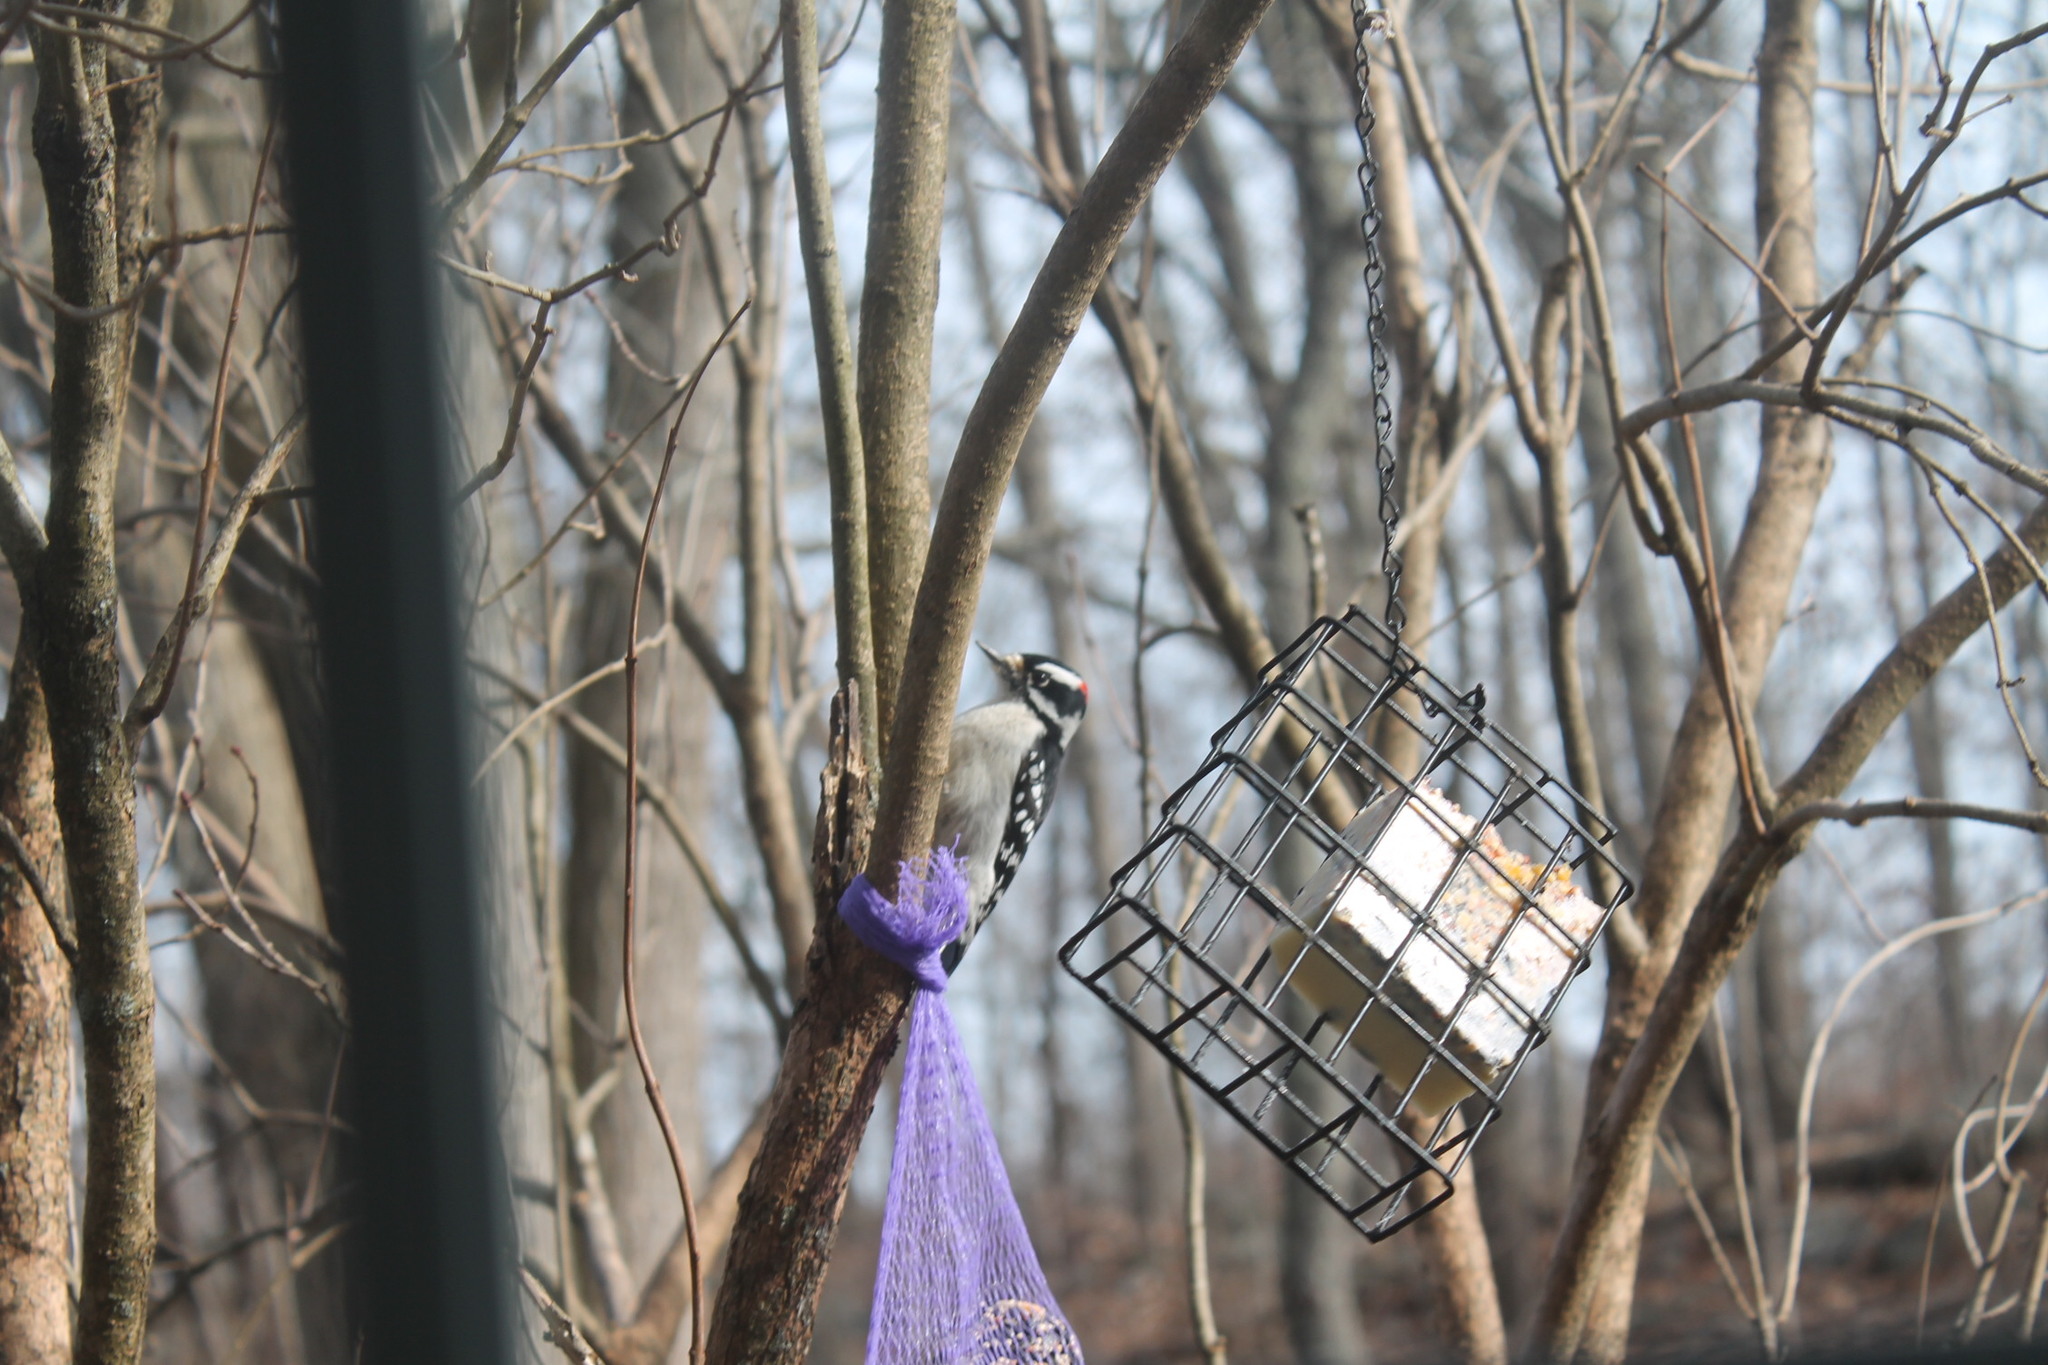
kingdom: Animalia
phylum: Chordata
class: Aves
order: Piciformes
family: Picidae
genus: Dryobates
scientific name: Dryobates pubescens
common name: Downy woodpecker
